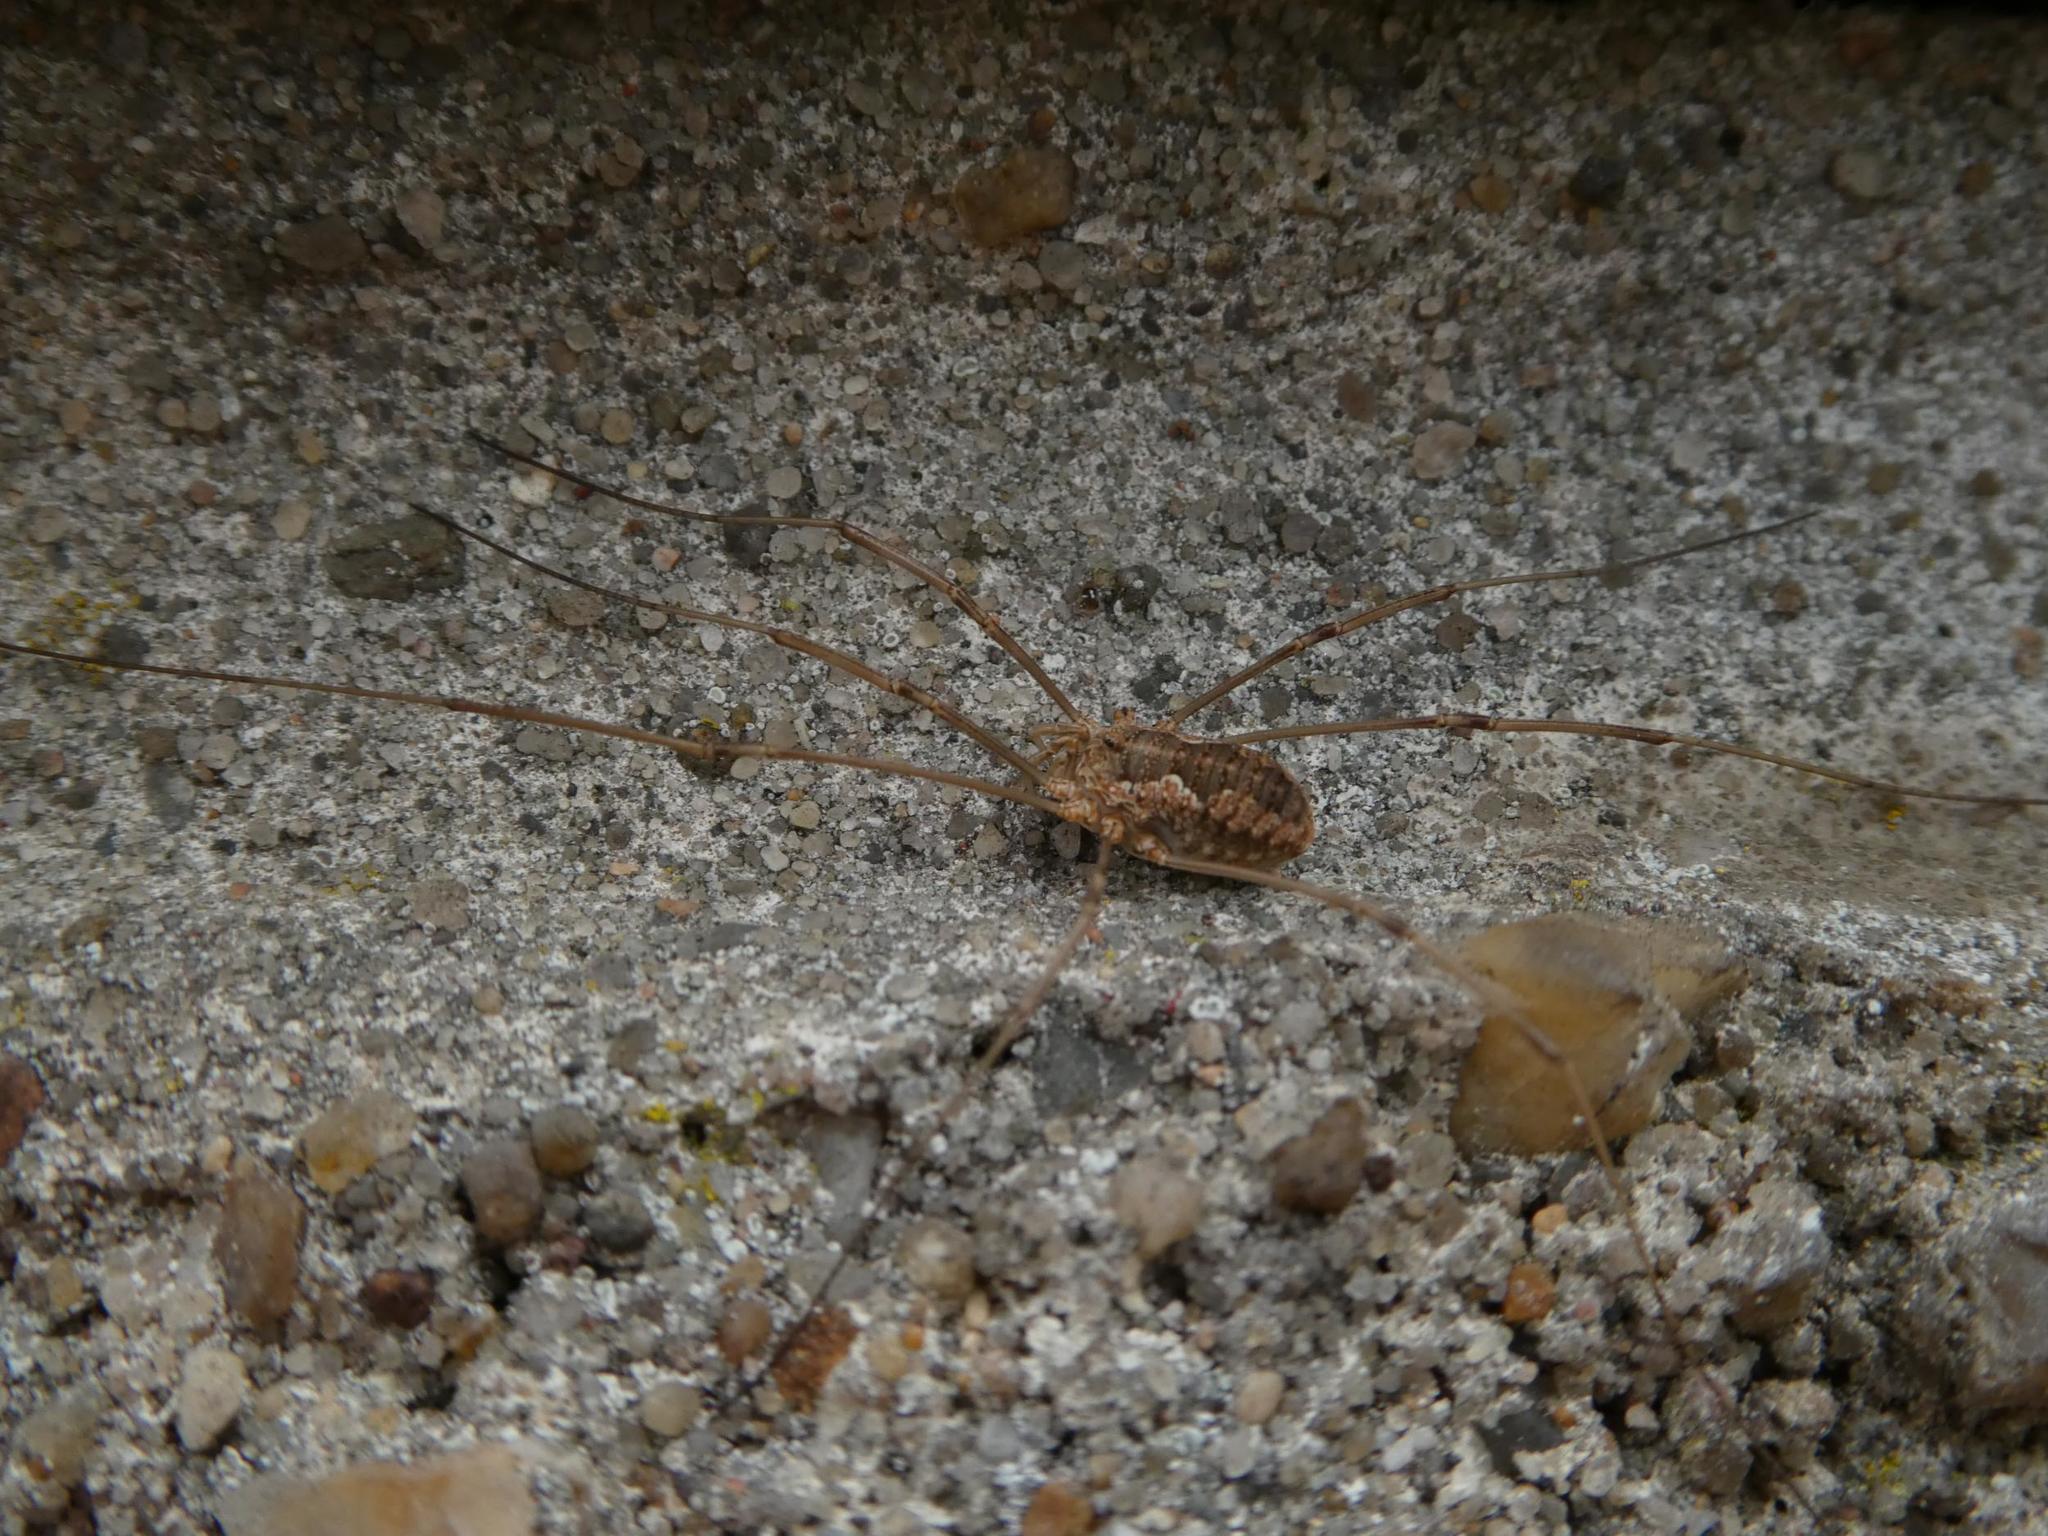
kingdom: Animalia
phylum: Arthropoda
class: Arachnida
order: Opiliones
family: Phalangiidae
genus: Phalangium
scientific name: Phalangium opilio
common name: Daddy longleg
